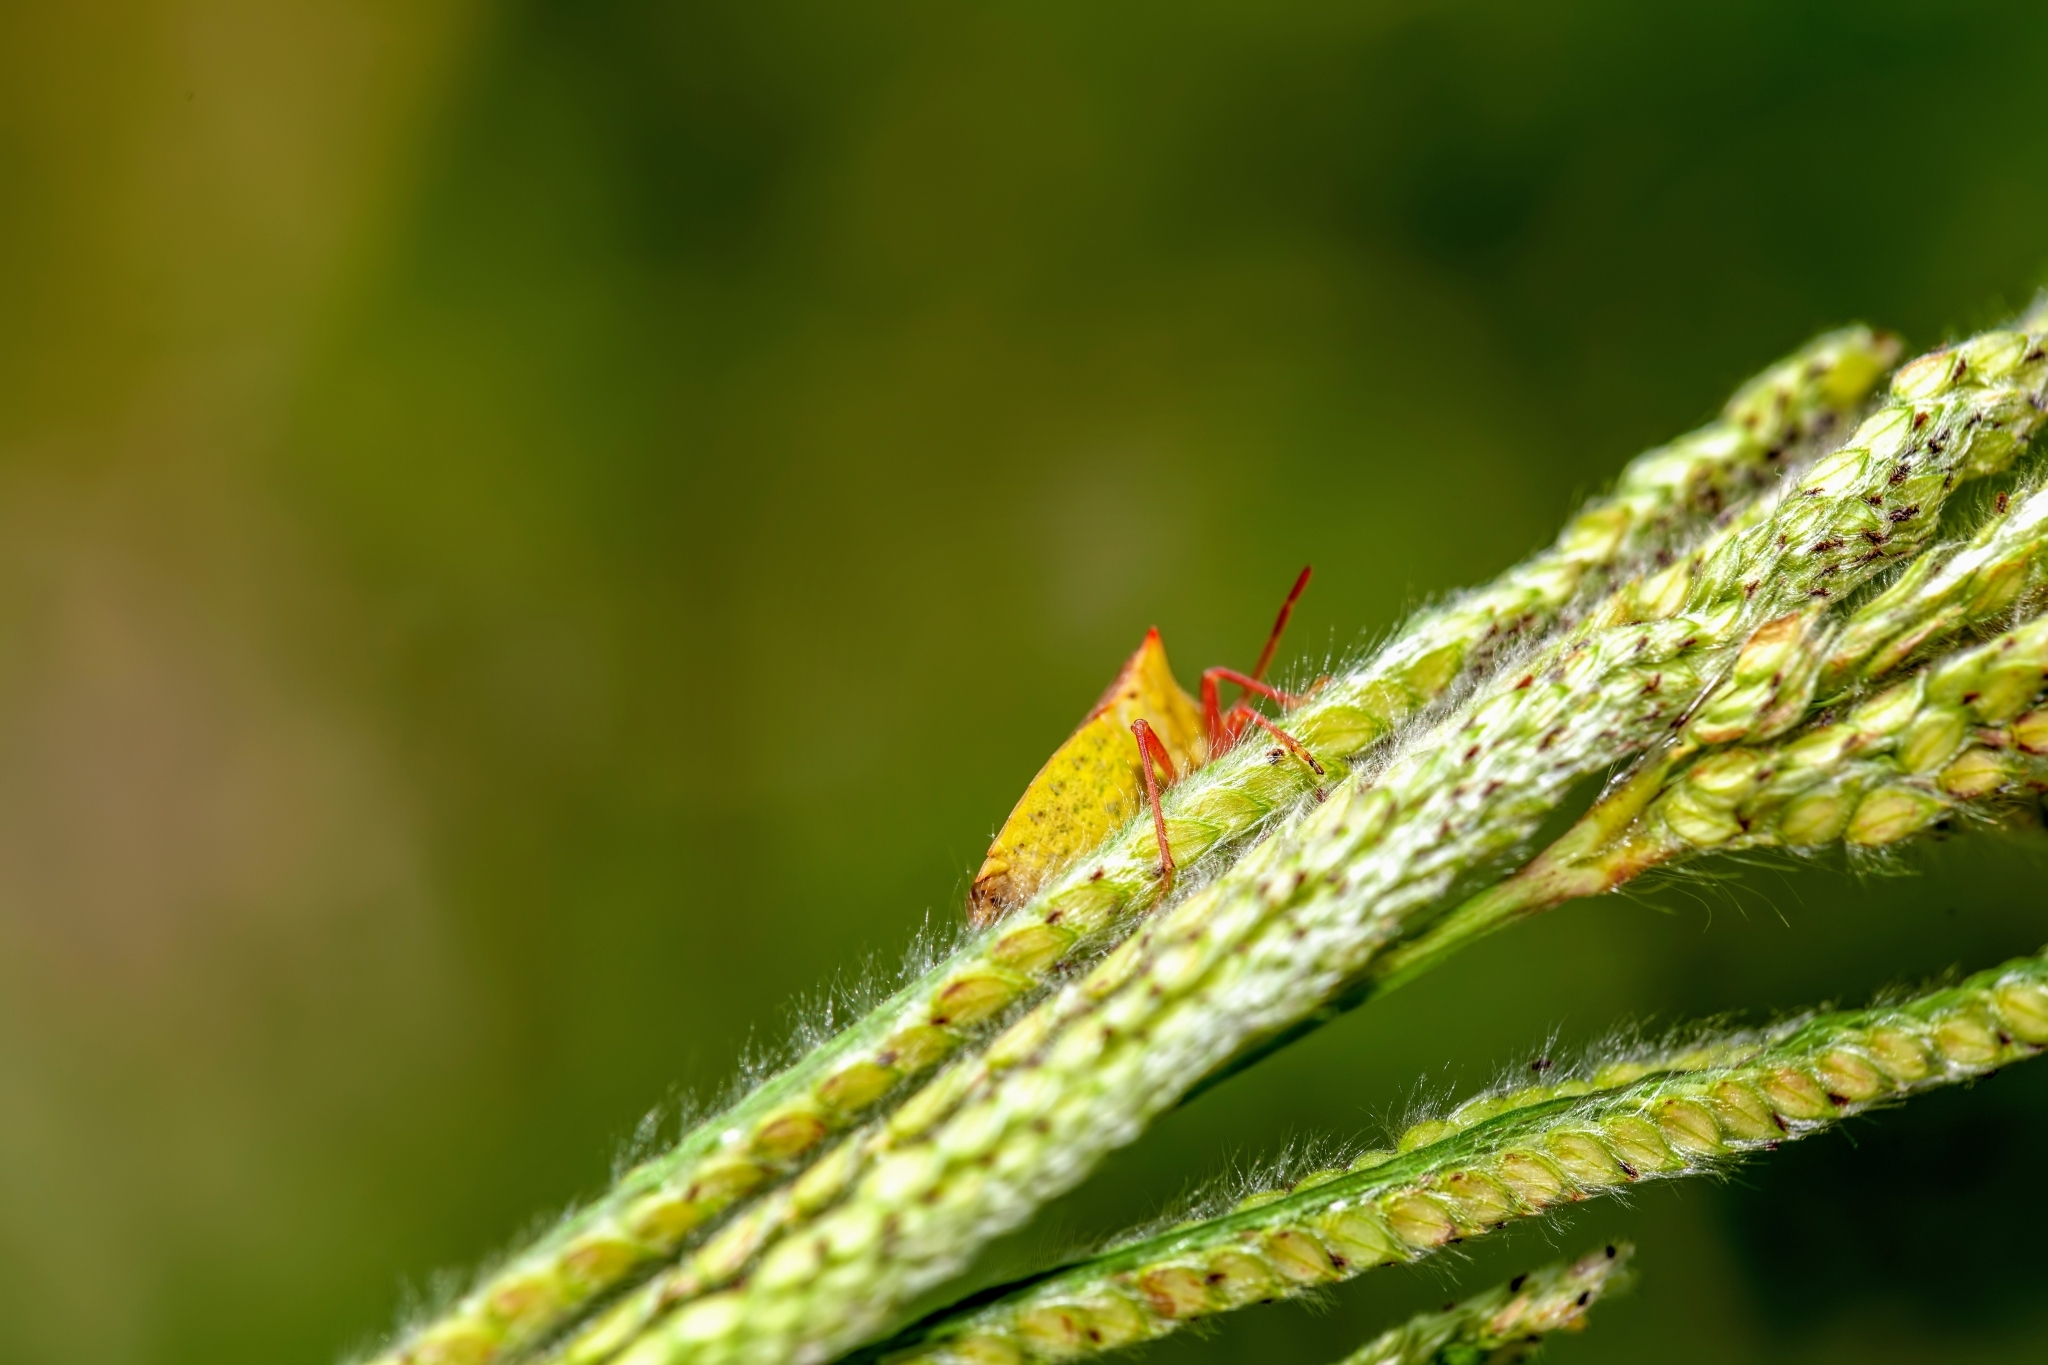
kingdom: Animalia
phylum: Arthropoda
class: Insecta
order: Hemiptera
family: Pentatomidae
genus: Euschistus
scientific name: Euschistus ictericus
